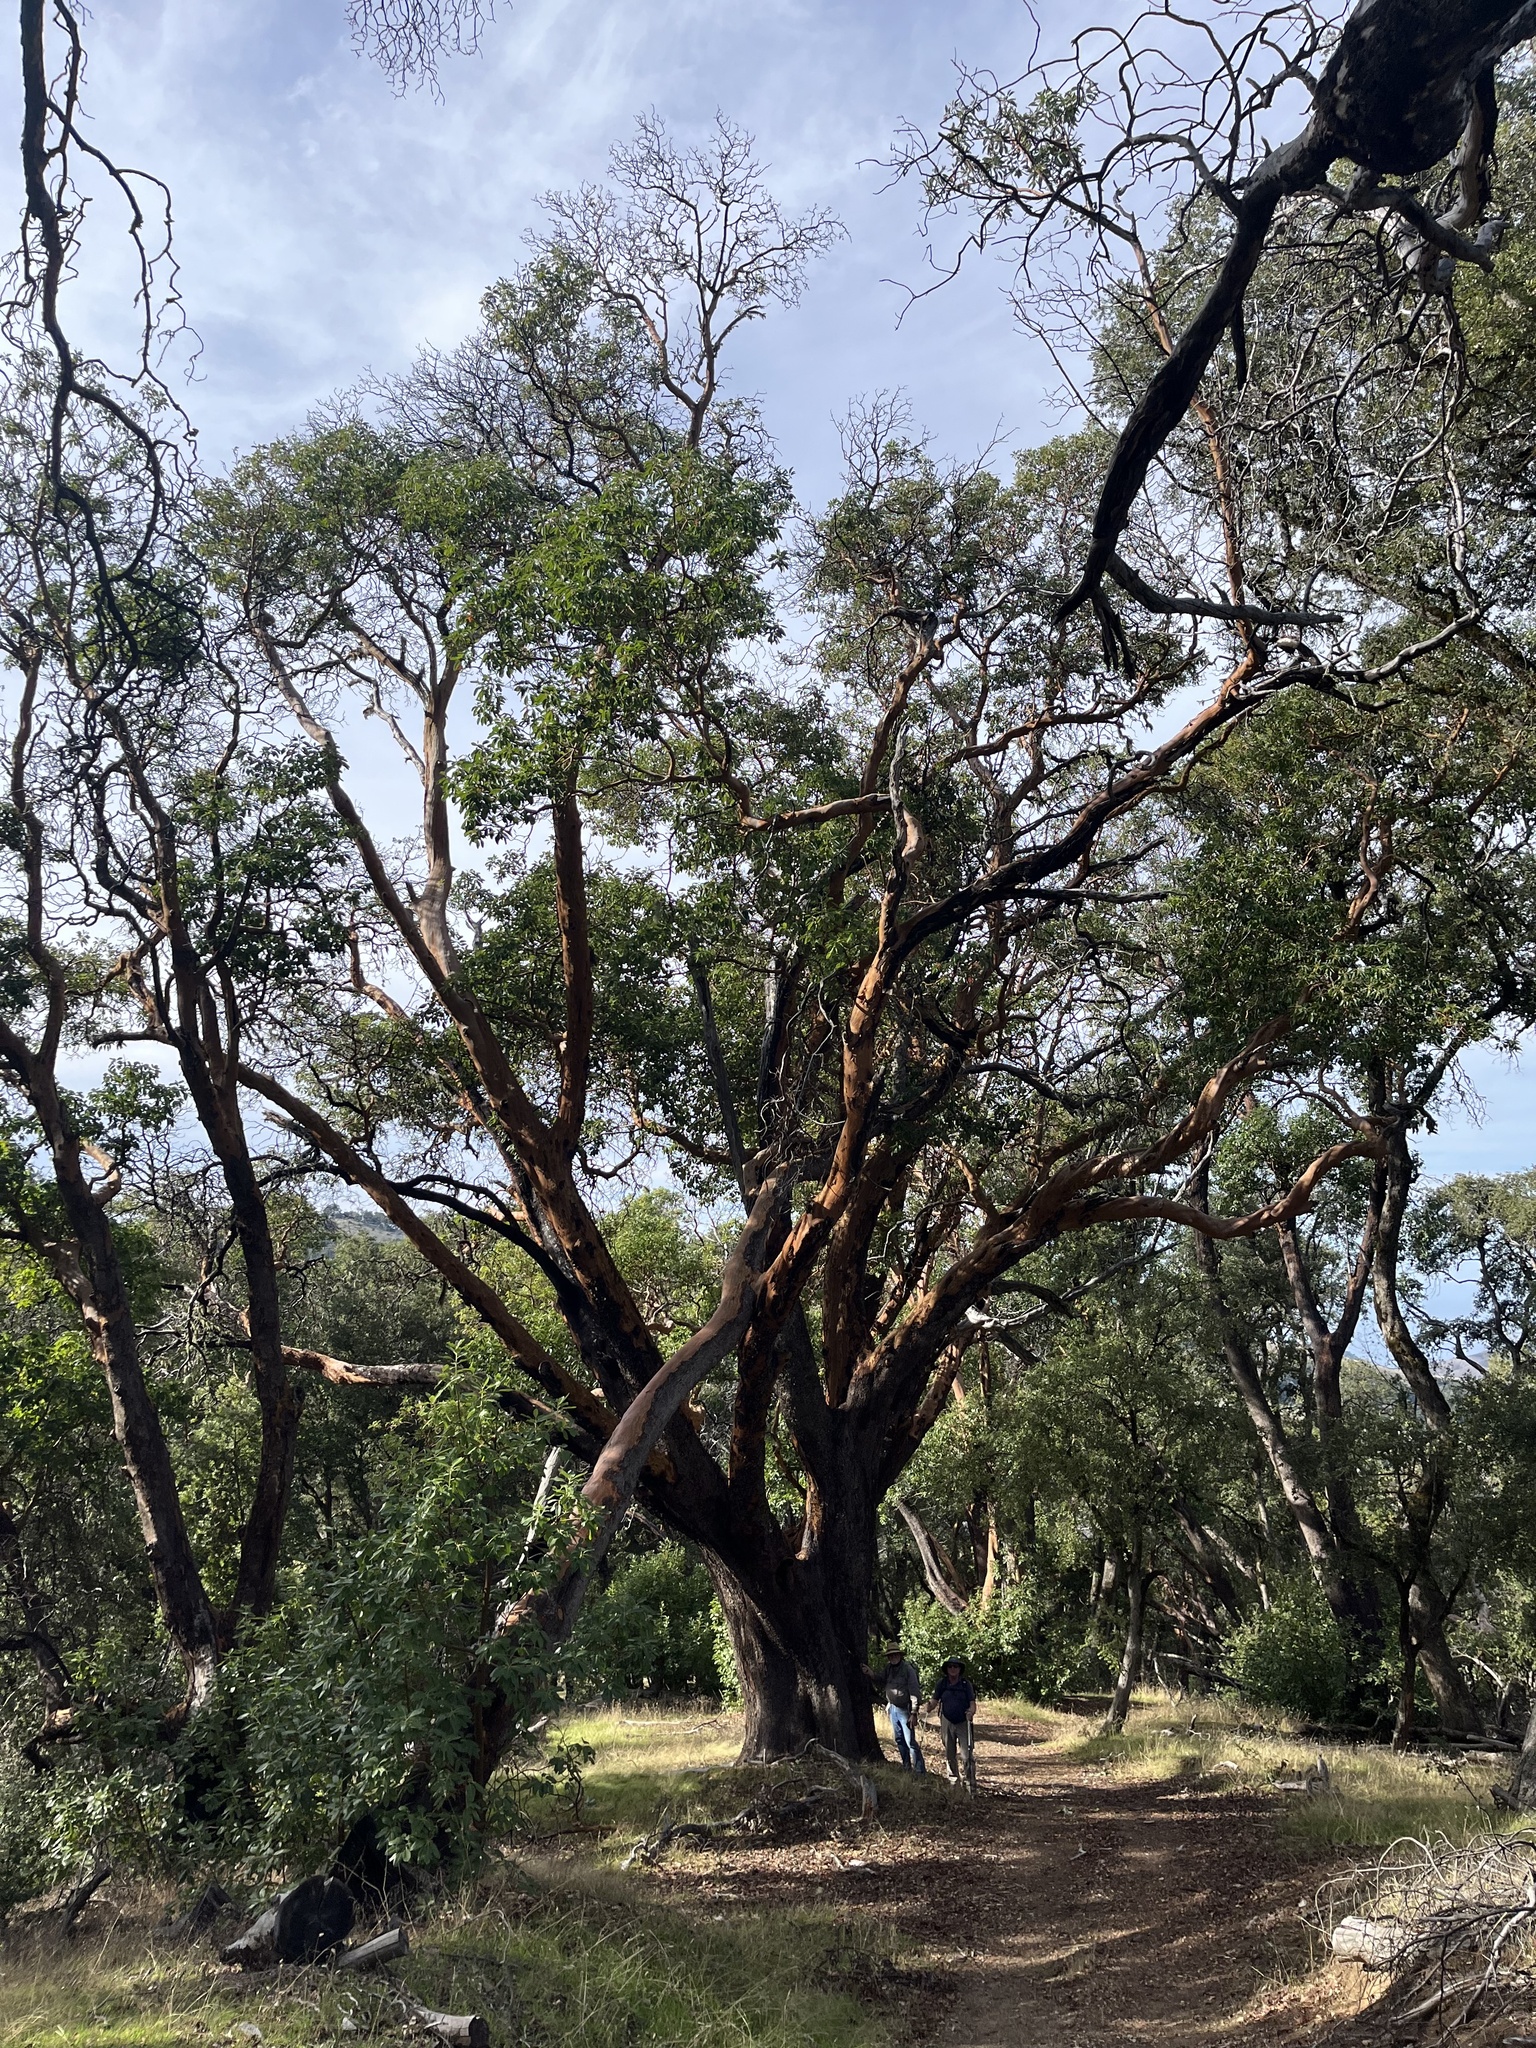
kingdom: Plantae
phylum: Tracheophyta
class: Magnoliopsida
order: Ericales
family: Ericaceae
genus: Arbutus
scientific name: Arbutus menziesii
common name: Pacific madrone
